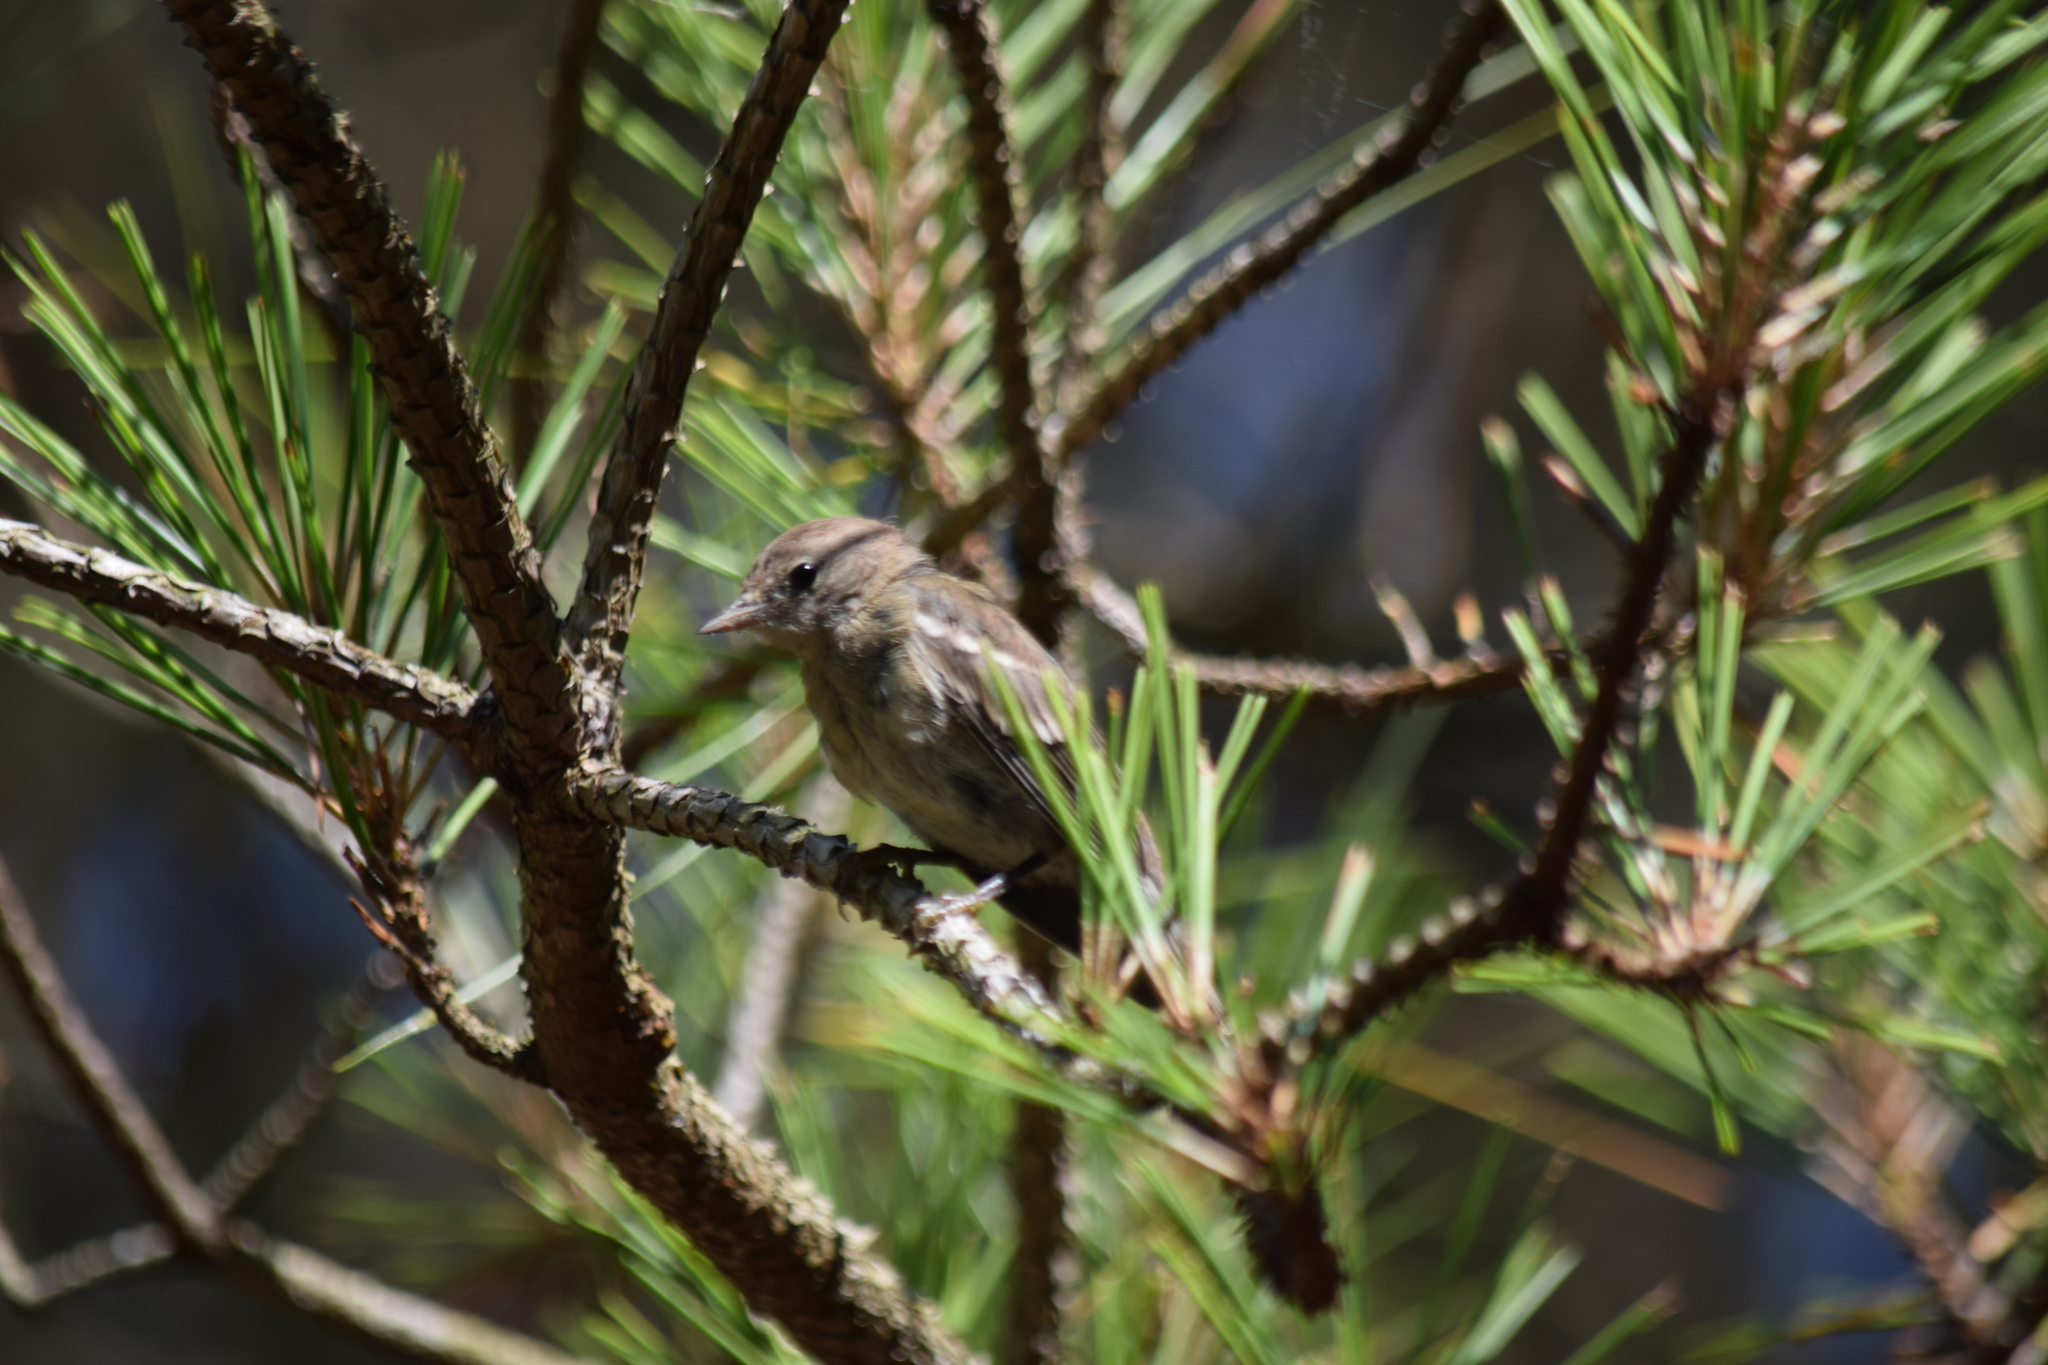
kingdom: Animalia
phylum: Chordata
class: Aves
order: Passeriformes
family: Parulidae
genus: Setophaga
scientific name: Setophaga pinus
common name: Pine warbler
